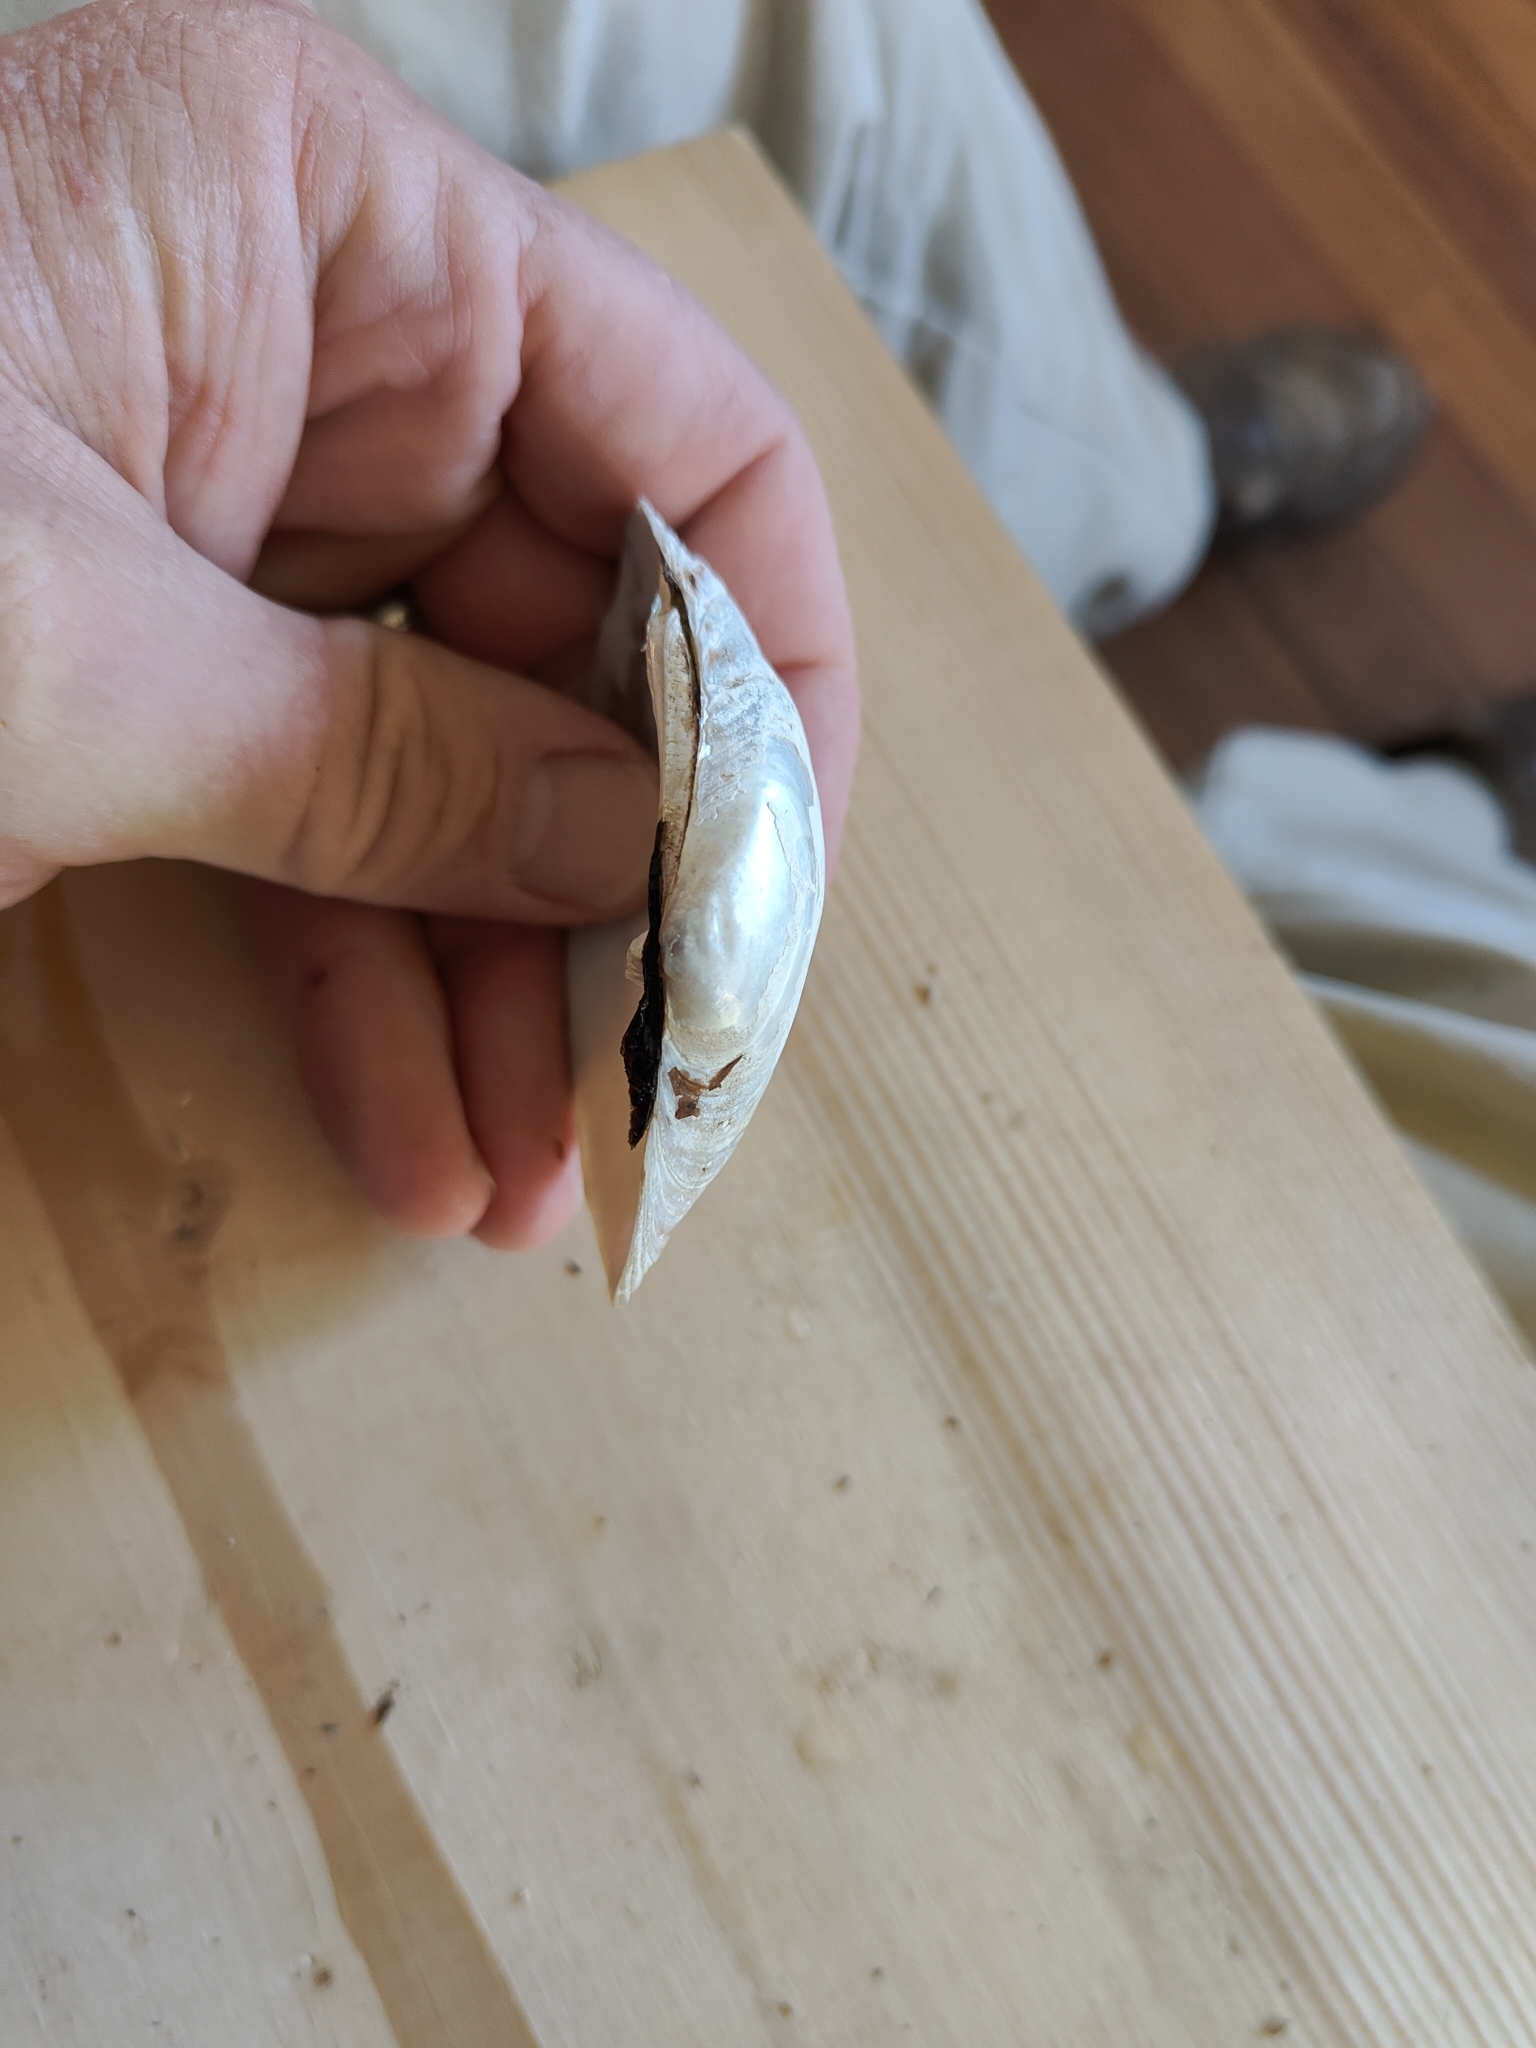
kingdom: Animalia
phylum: Mollusca
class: Bivalvia
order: Unionida
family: Unionidae
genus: Lampsilis
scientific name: Lampsilis cardium
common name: Plain pocketbook
